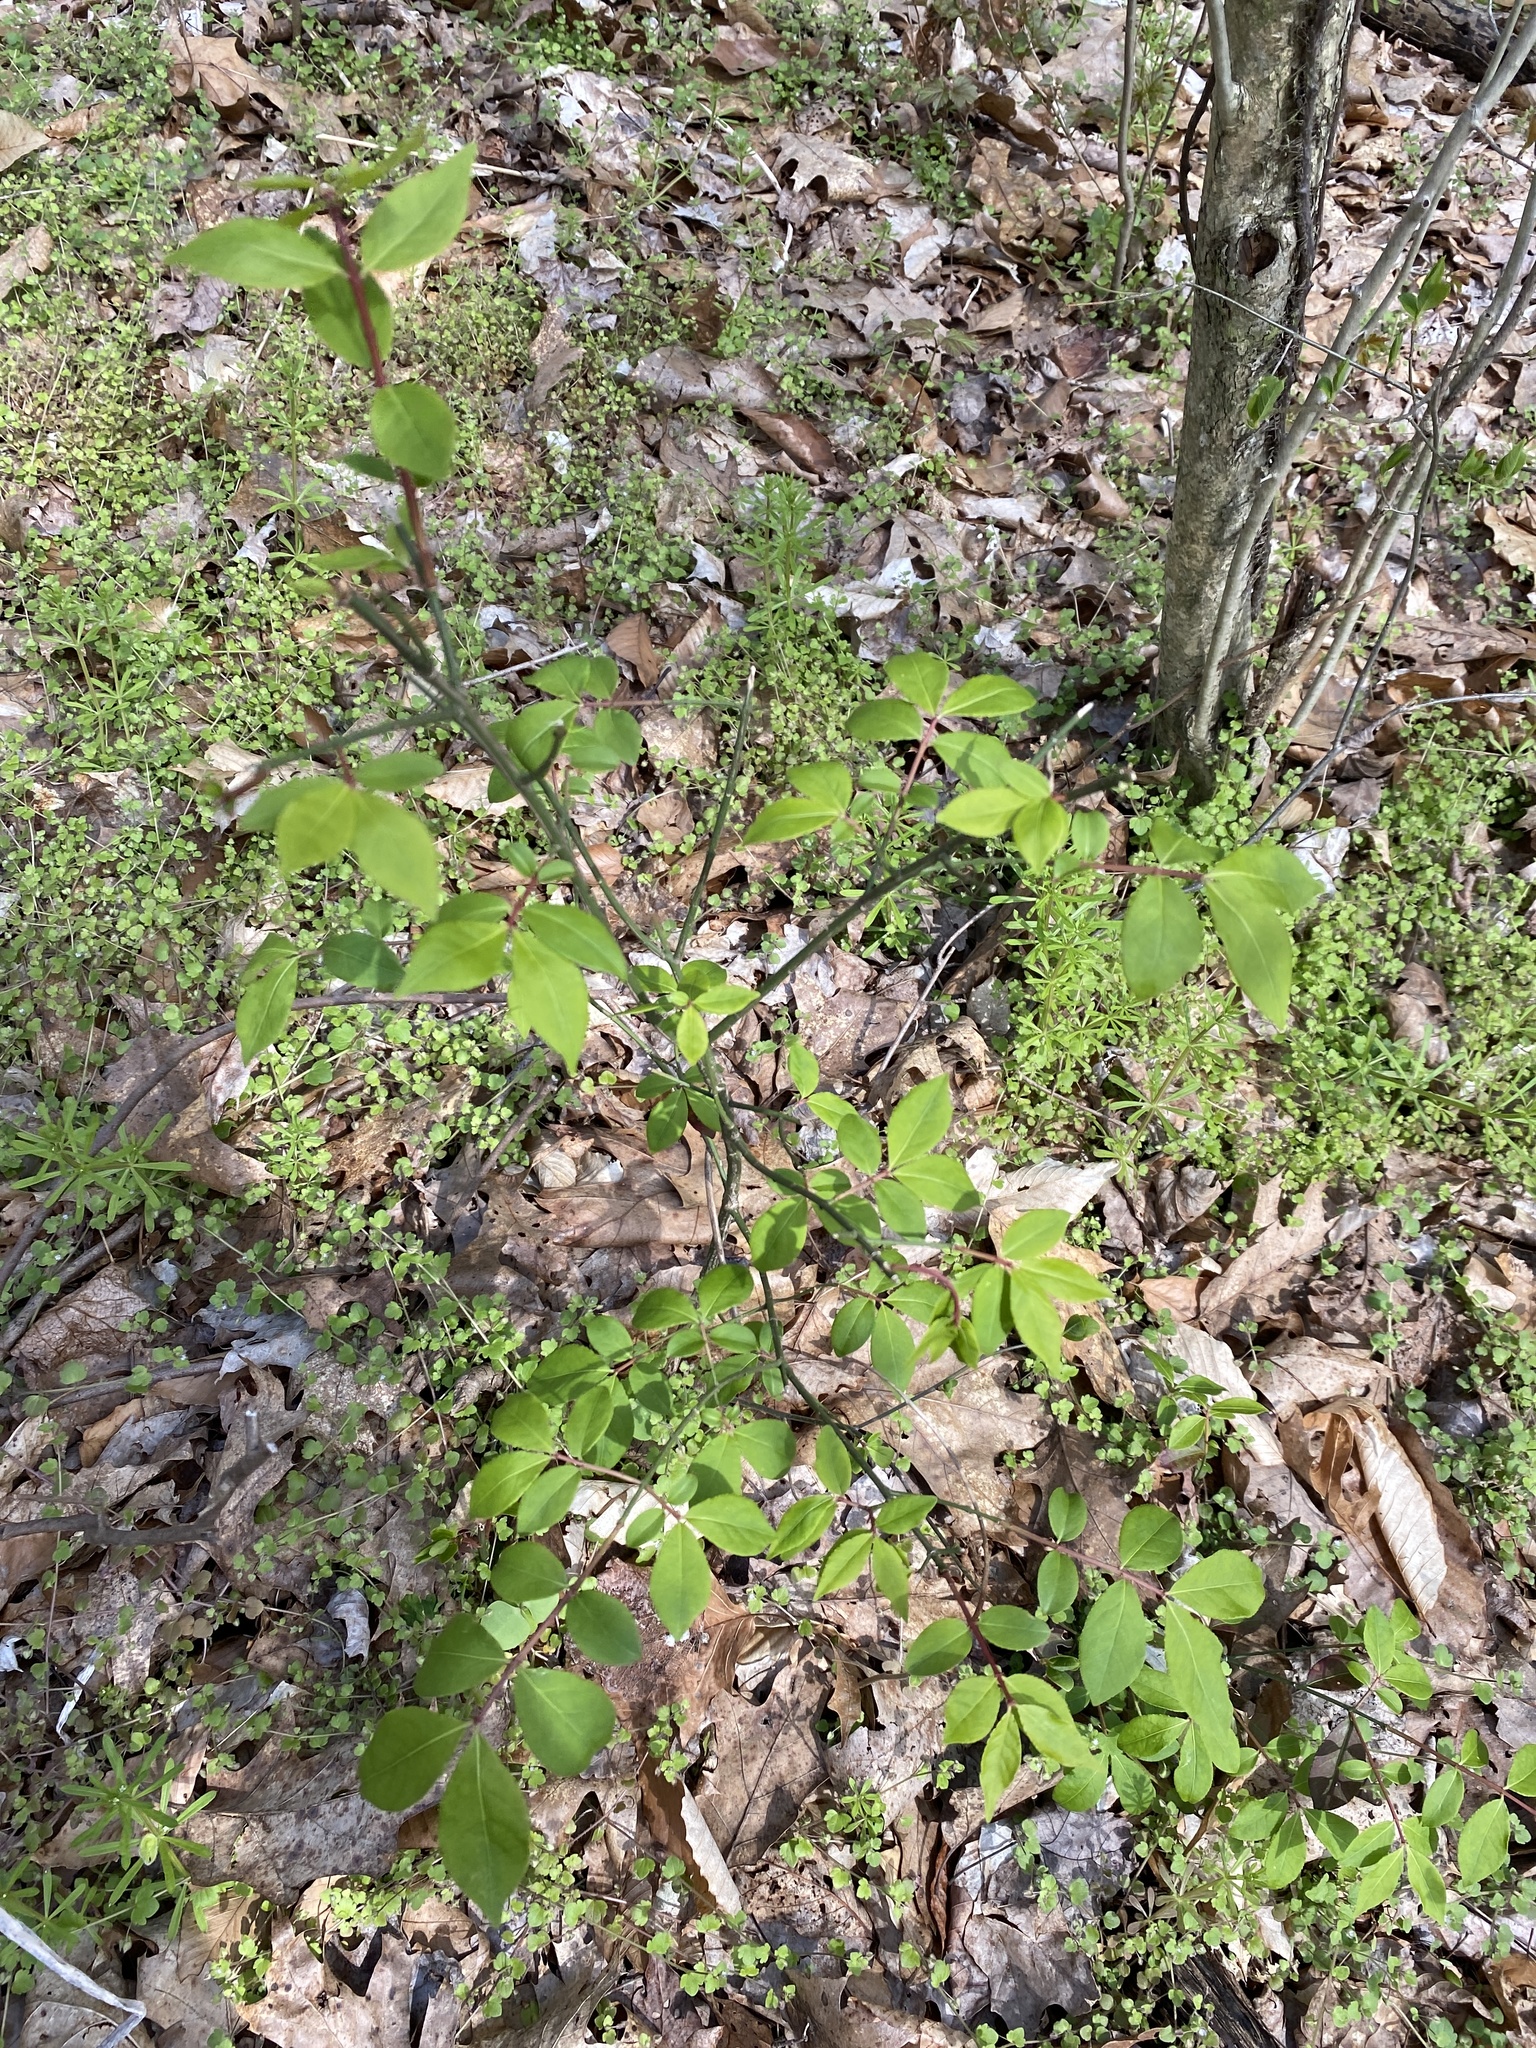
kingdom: Plantae
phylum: Tracheophyta
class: Magnoliopsida
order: Celastrales
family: Celastraceae
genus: Euonymus
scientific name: Euonymus alatus
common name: Winged euonymus
